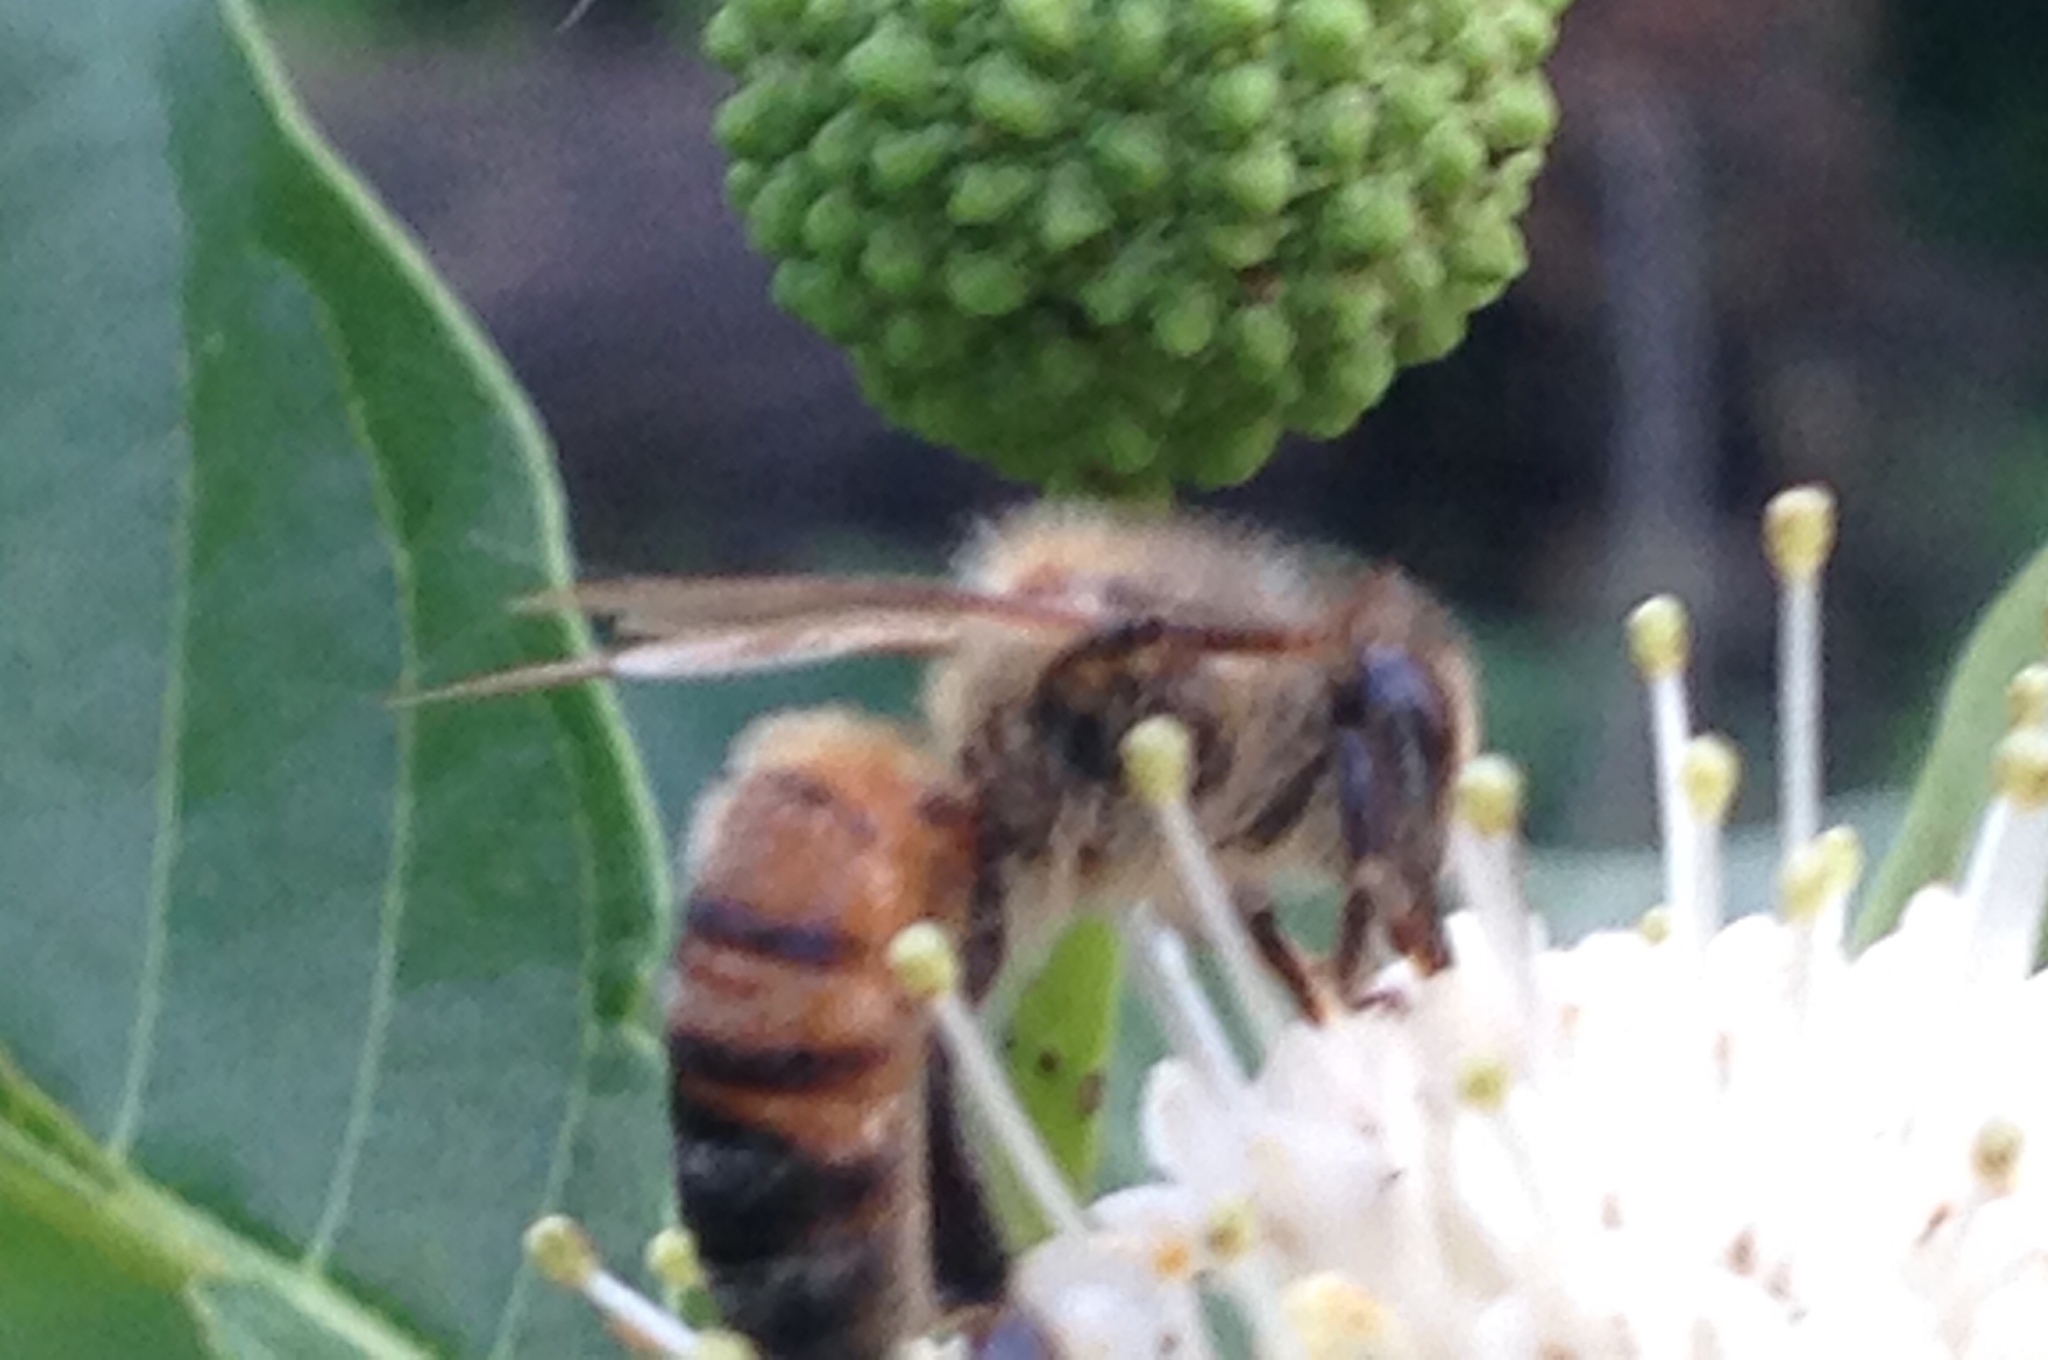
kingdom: Animalia
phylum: Arthropoda
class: Insecta
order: Hymenoptera
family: Apidae
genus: Apis
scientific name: Apis mellifera
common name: Honey bee
